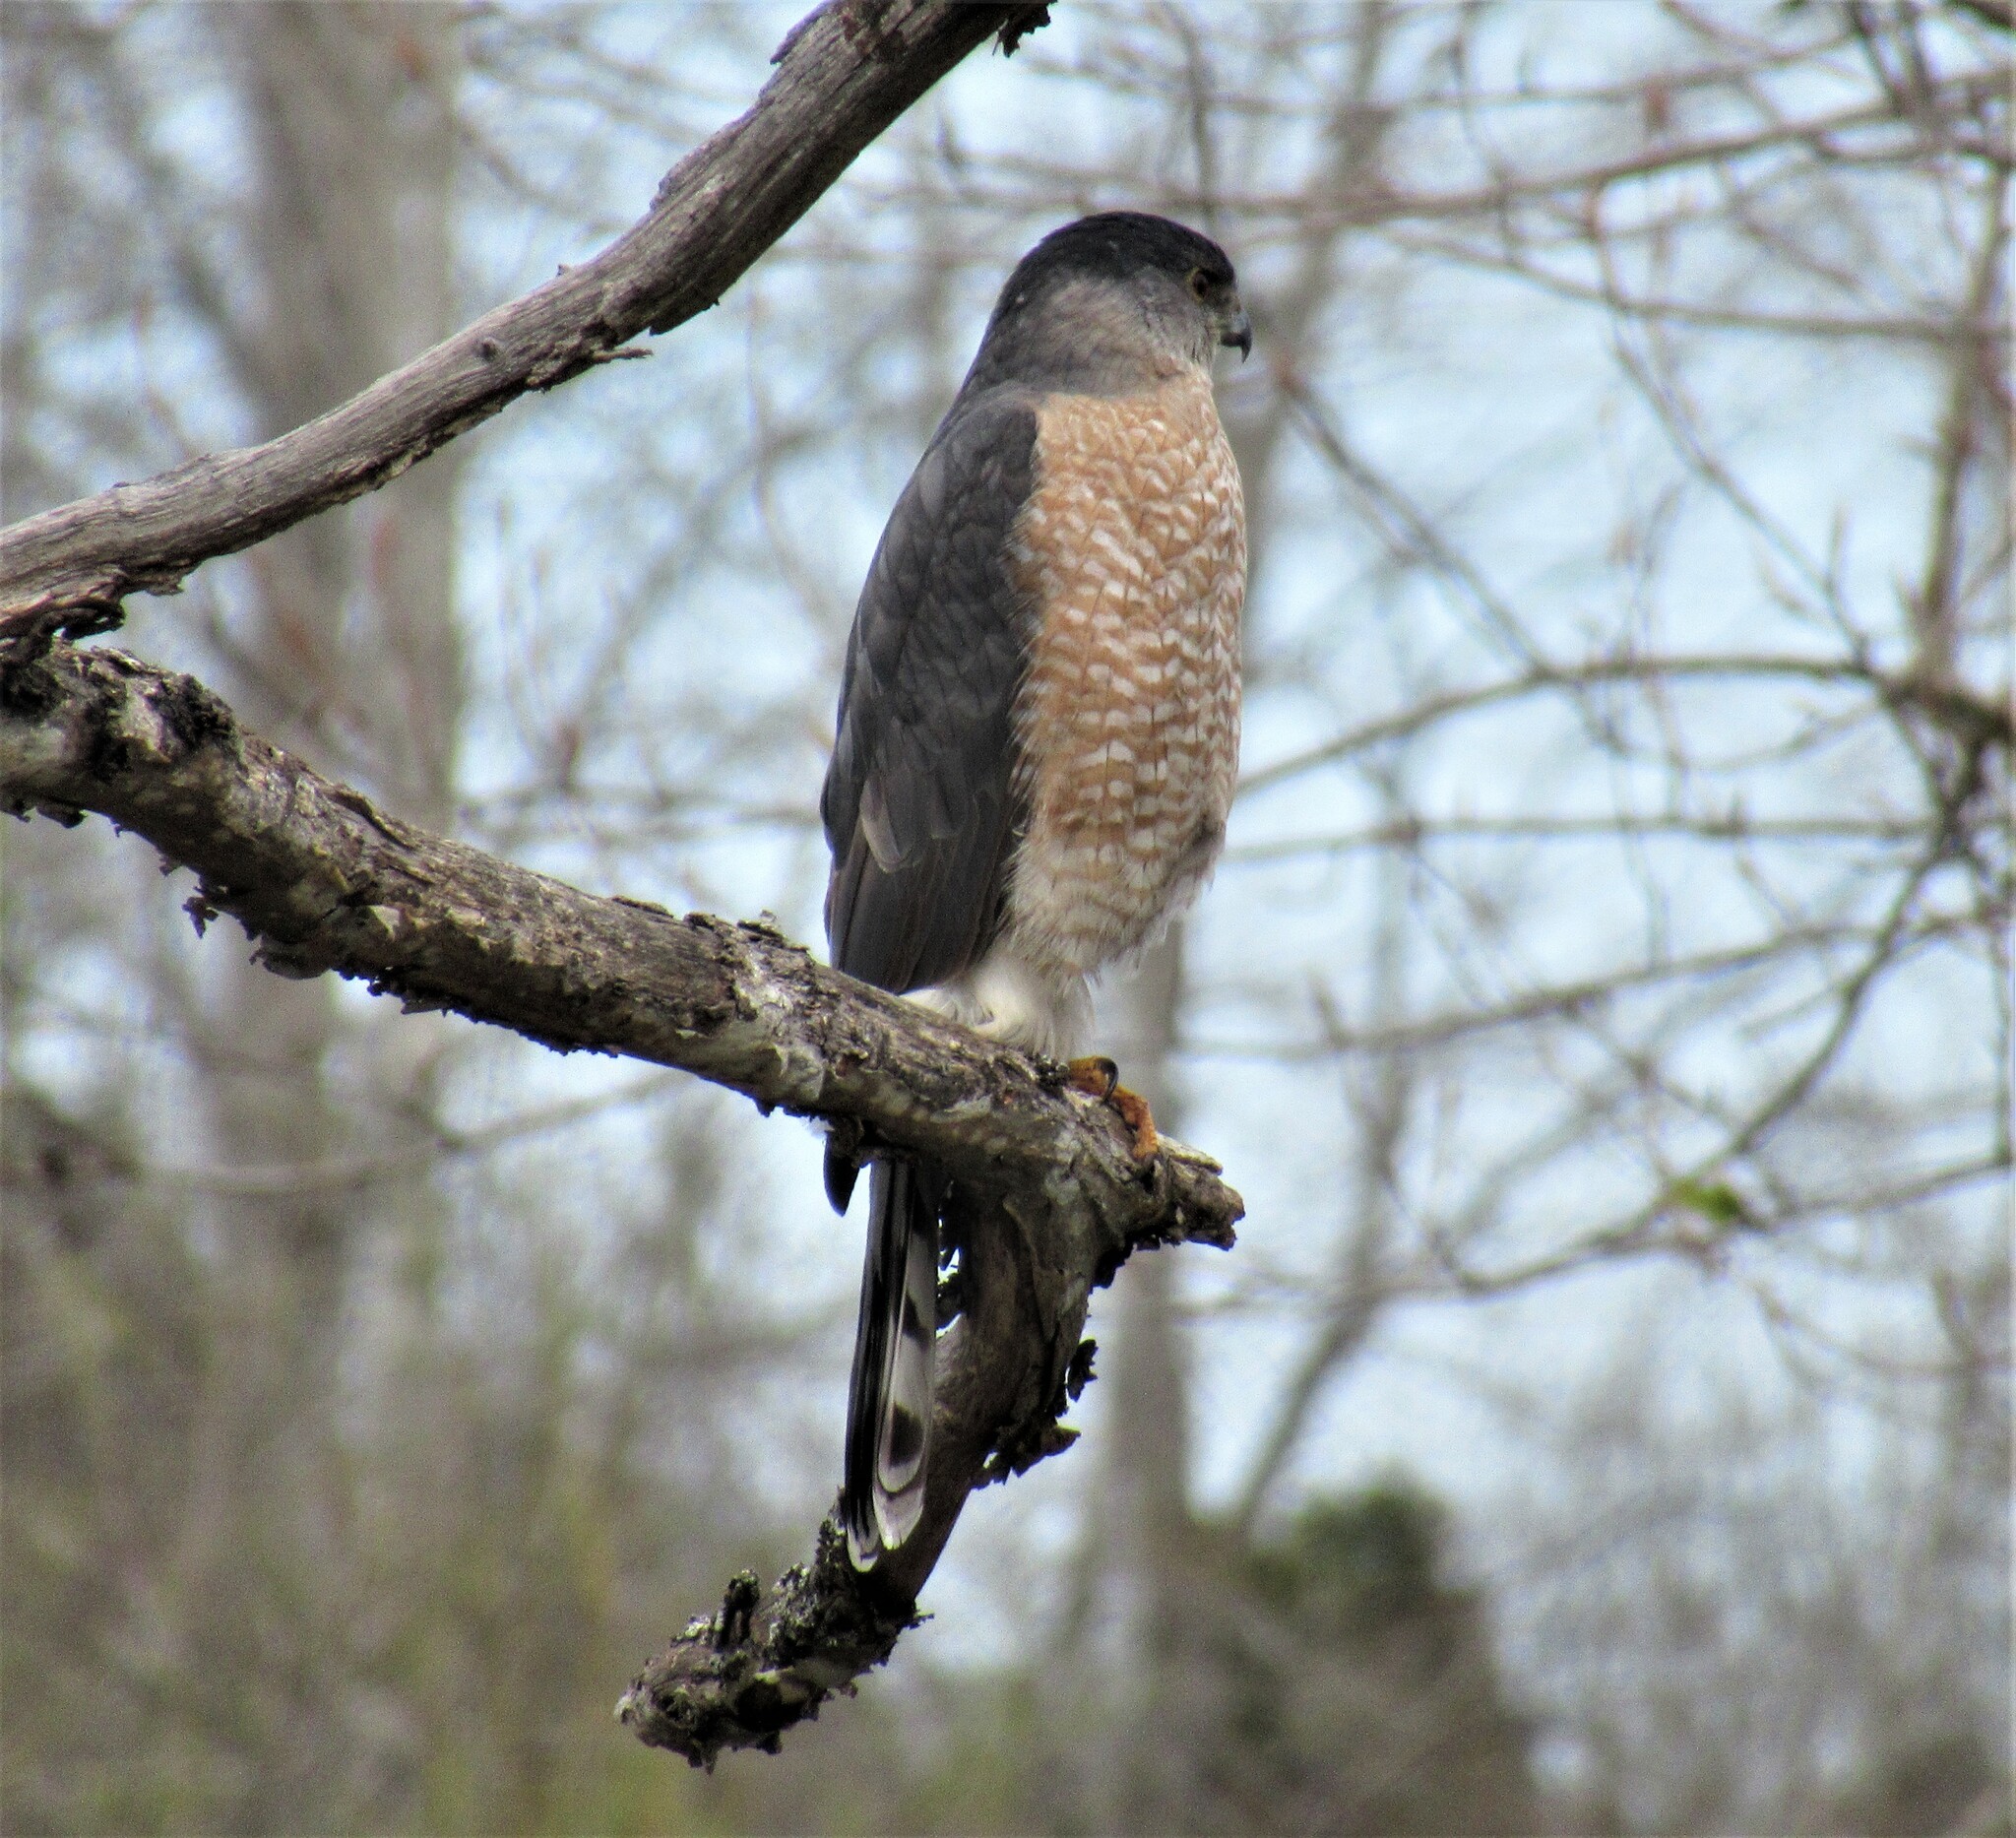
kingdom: Animalia
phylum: Chordata
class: Aves
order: Accipitriformes
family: Accipitridae
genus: Accipiter
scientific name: Accipiter cooperii
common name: Cooper's hawk
